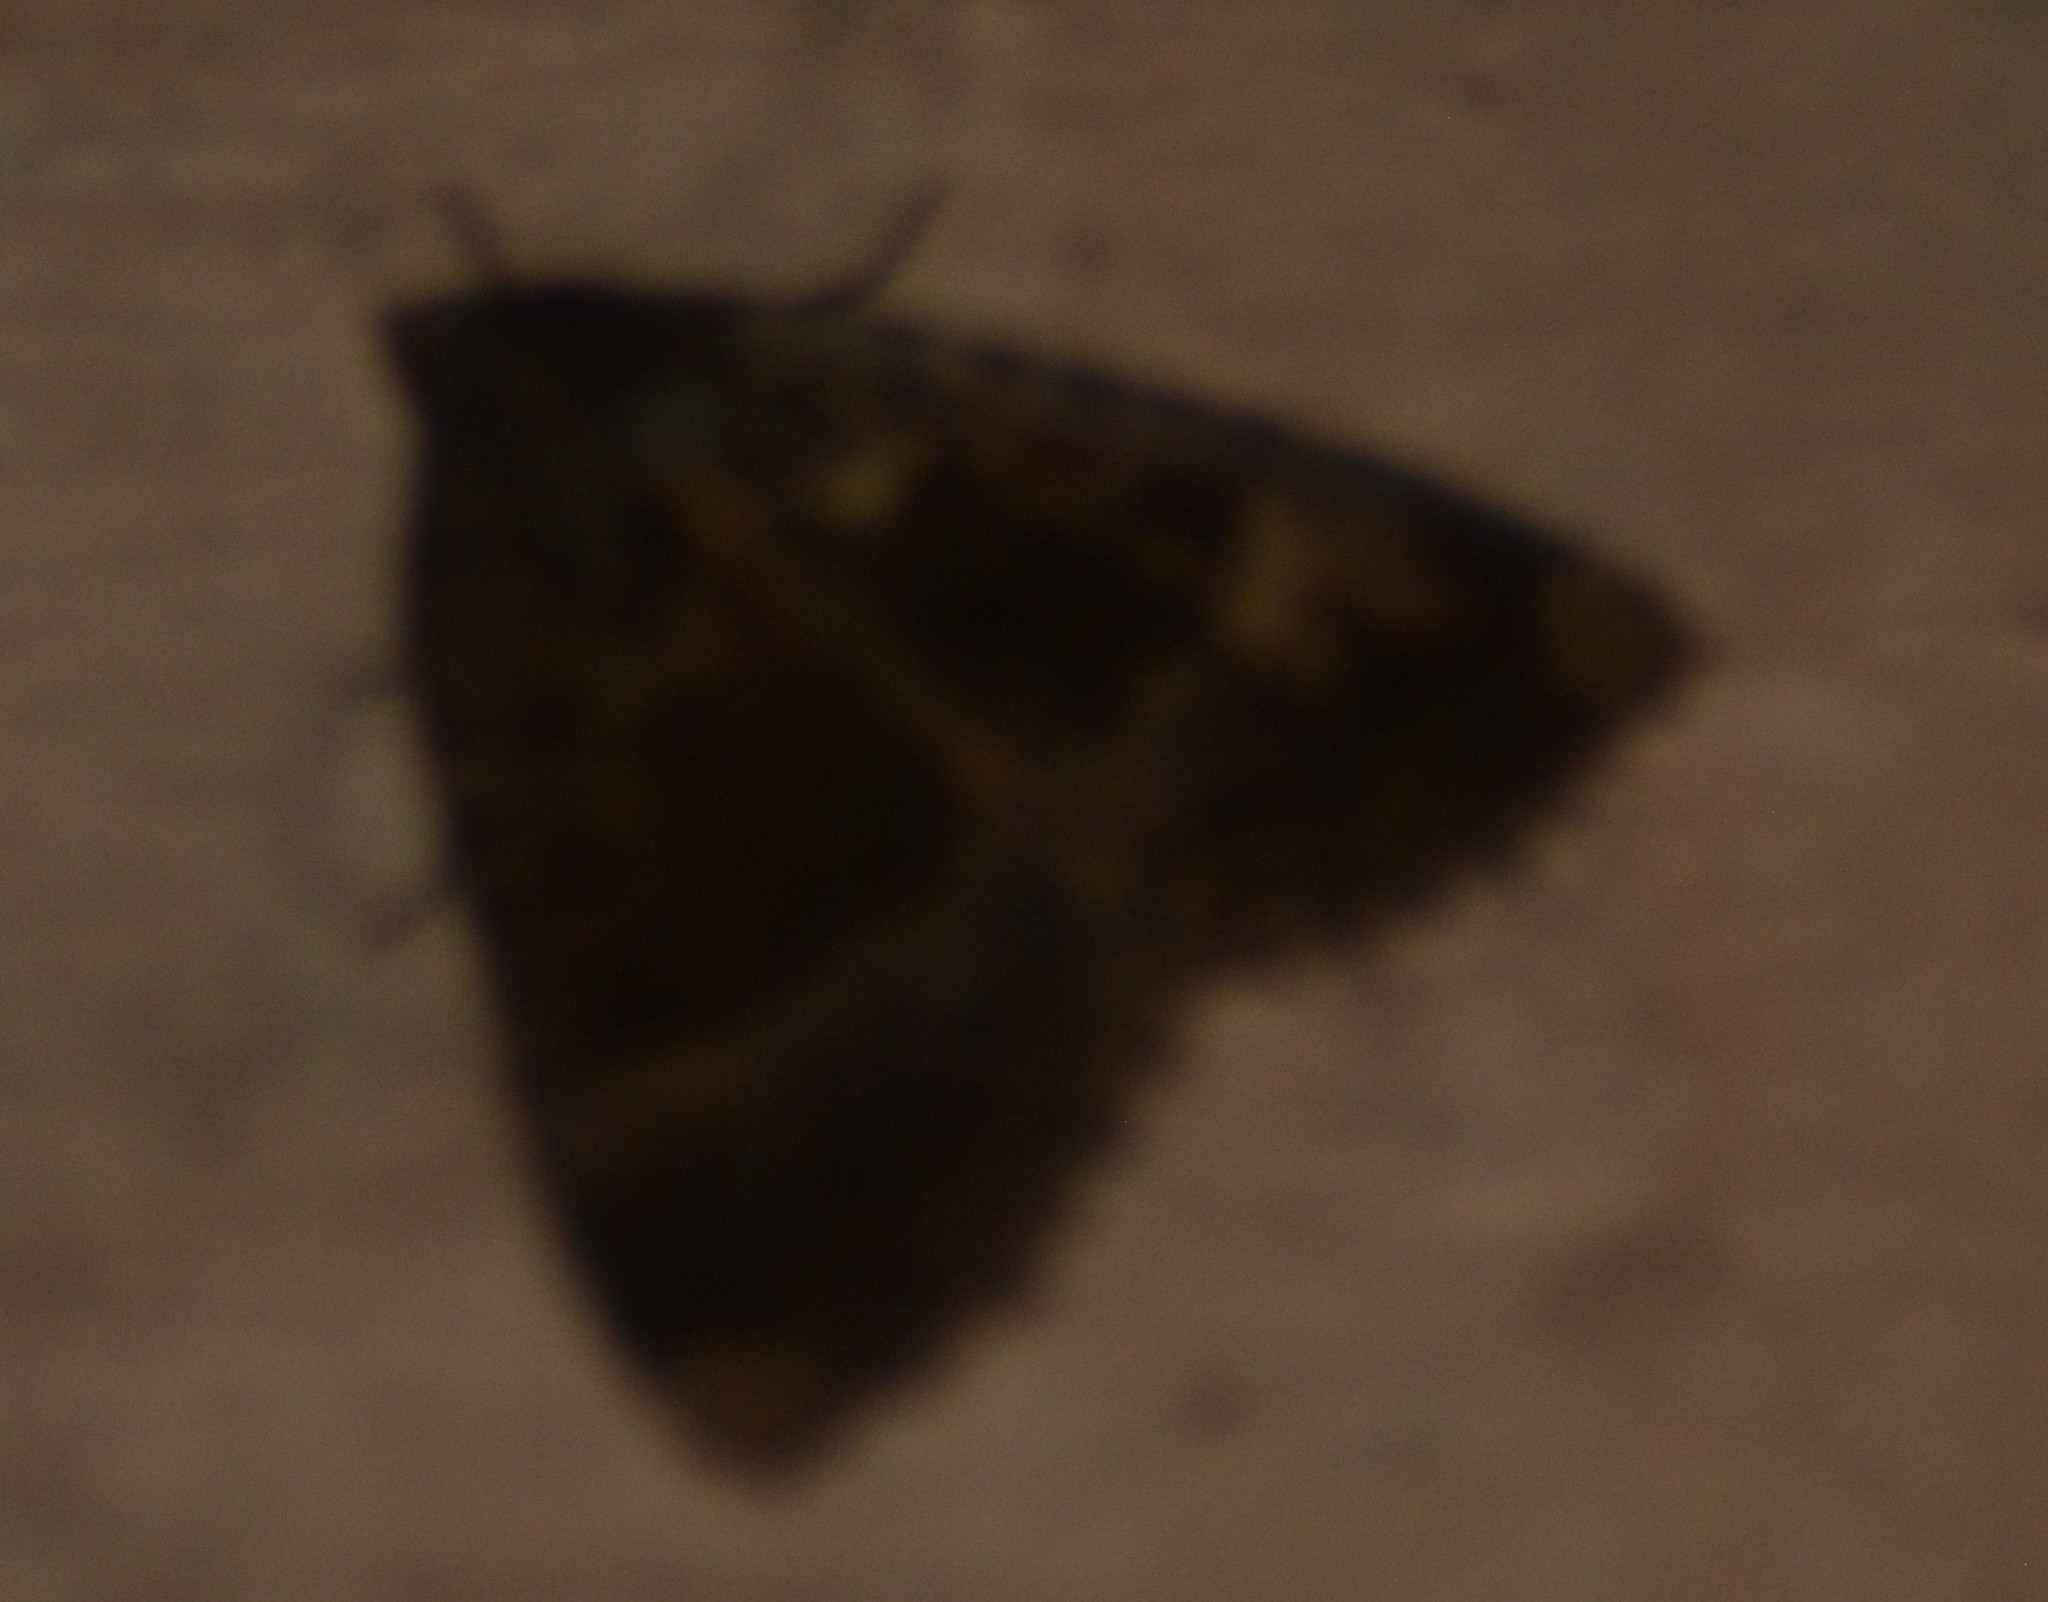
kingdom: Animalia
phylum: Arthropoda
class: Insecta
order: Lepidoptera
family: Noctuidae
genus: Mormo
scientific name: Mormo maura
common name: Old lady
